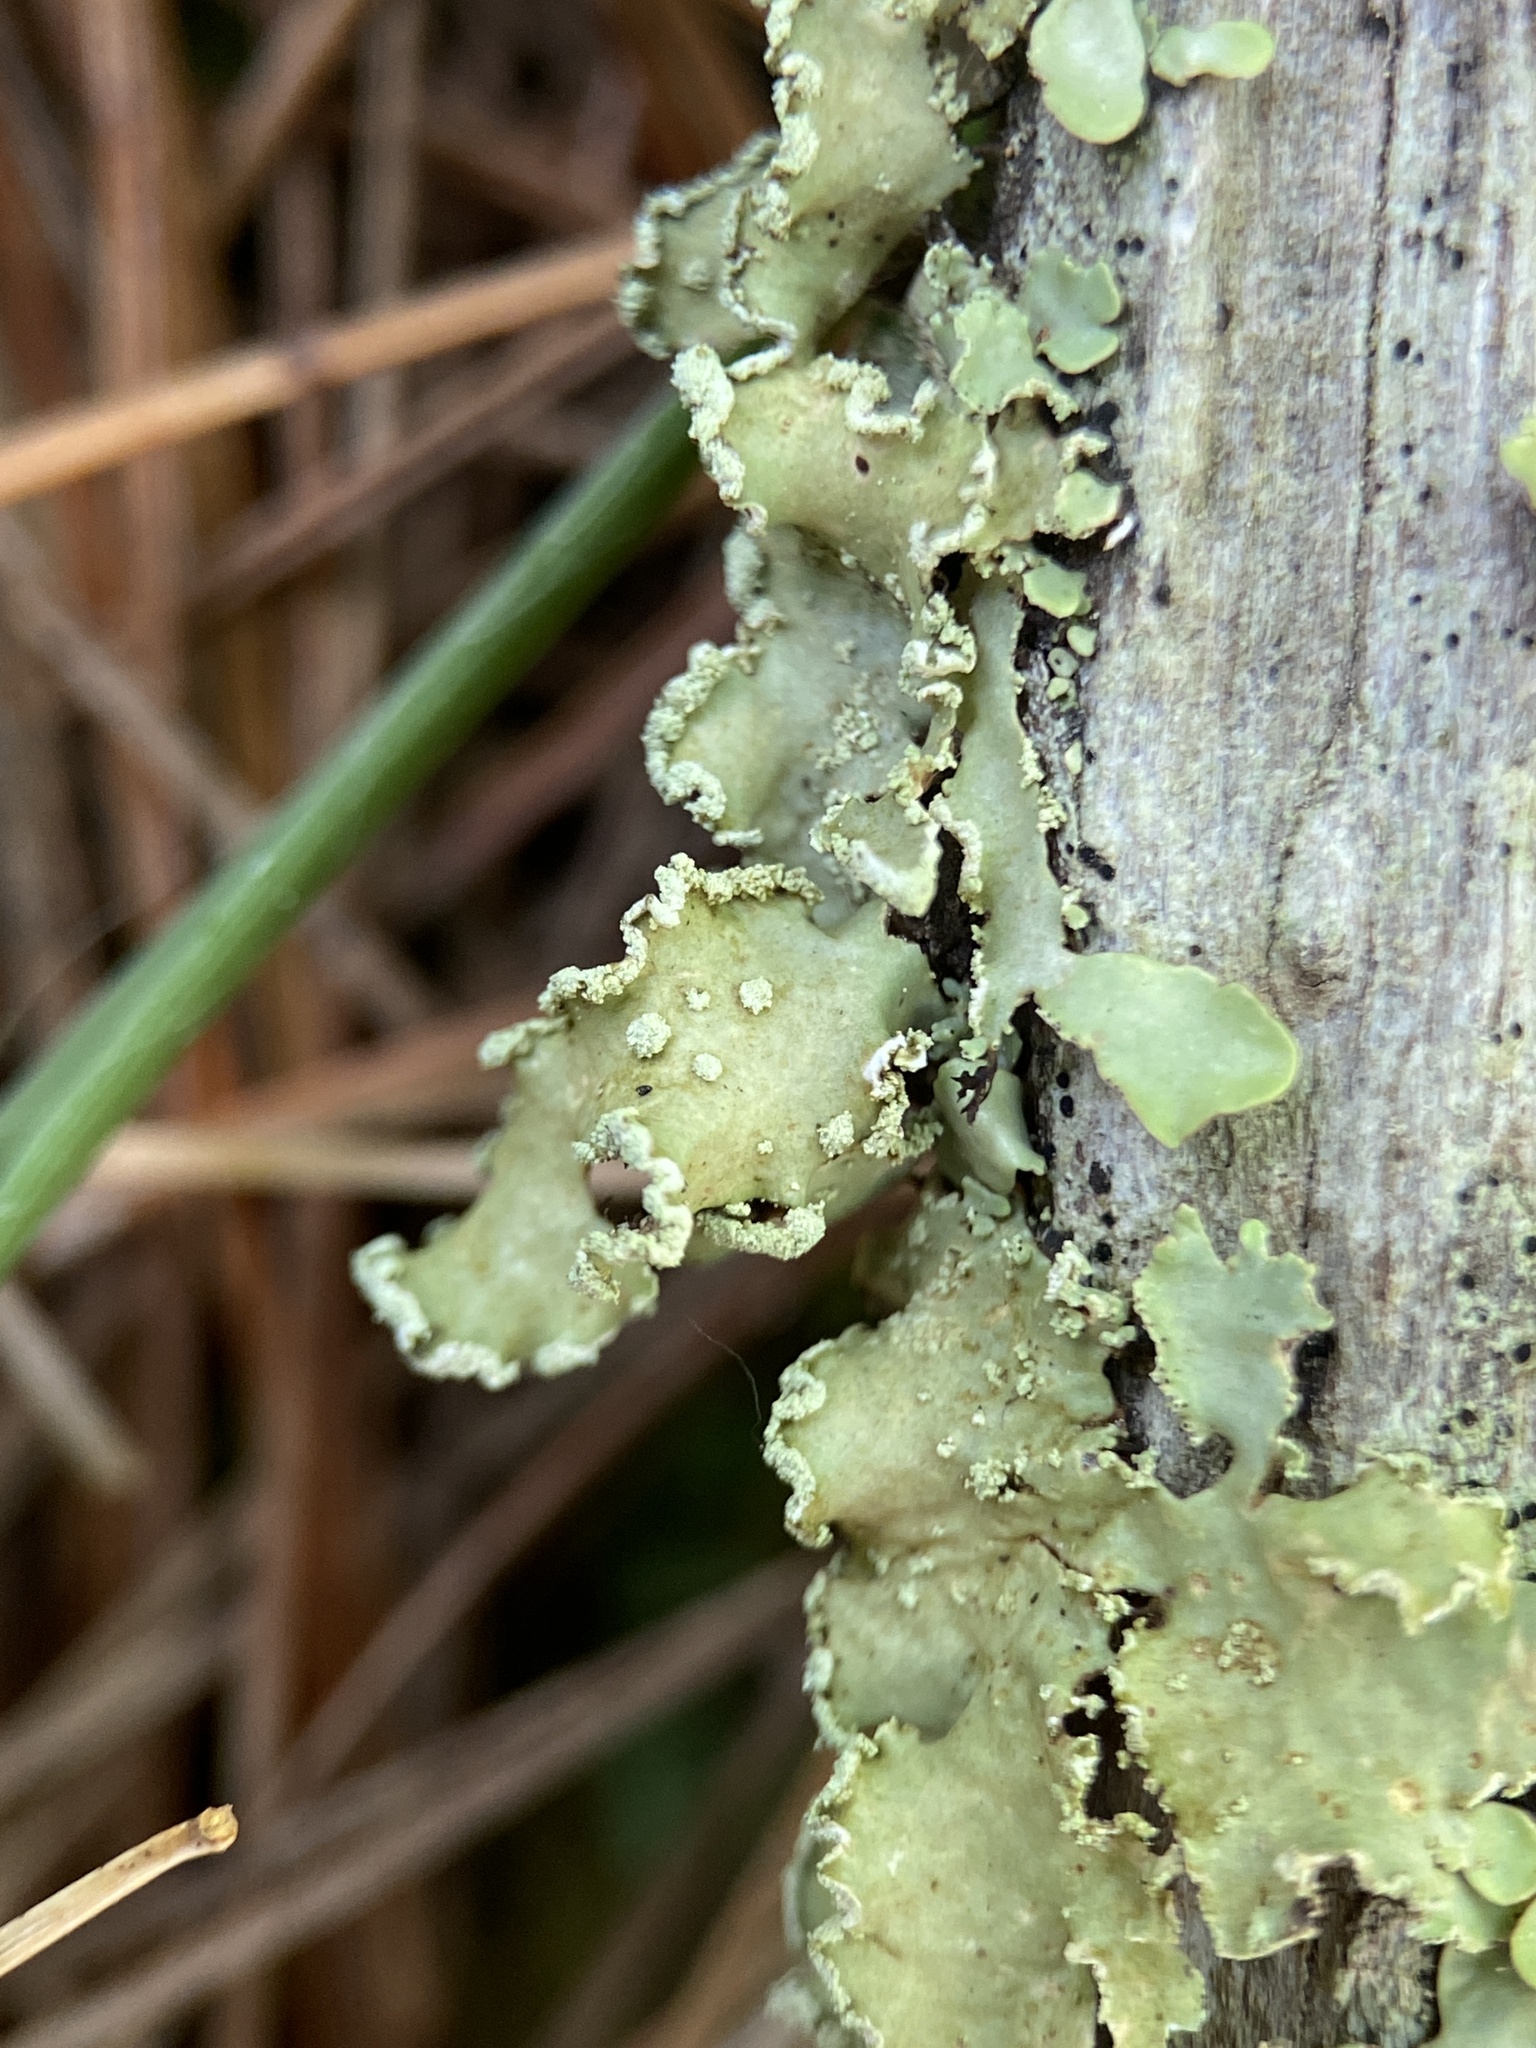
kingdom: Fungi
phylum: Ascomycota
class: Lecanoromycetes
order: Lecanorales
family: Parmeliaceae
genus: Usnocetraria
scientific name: Usnocetraria oakesiana
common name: Yellow ribbon lichen
